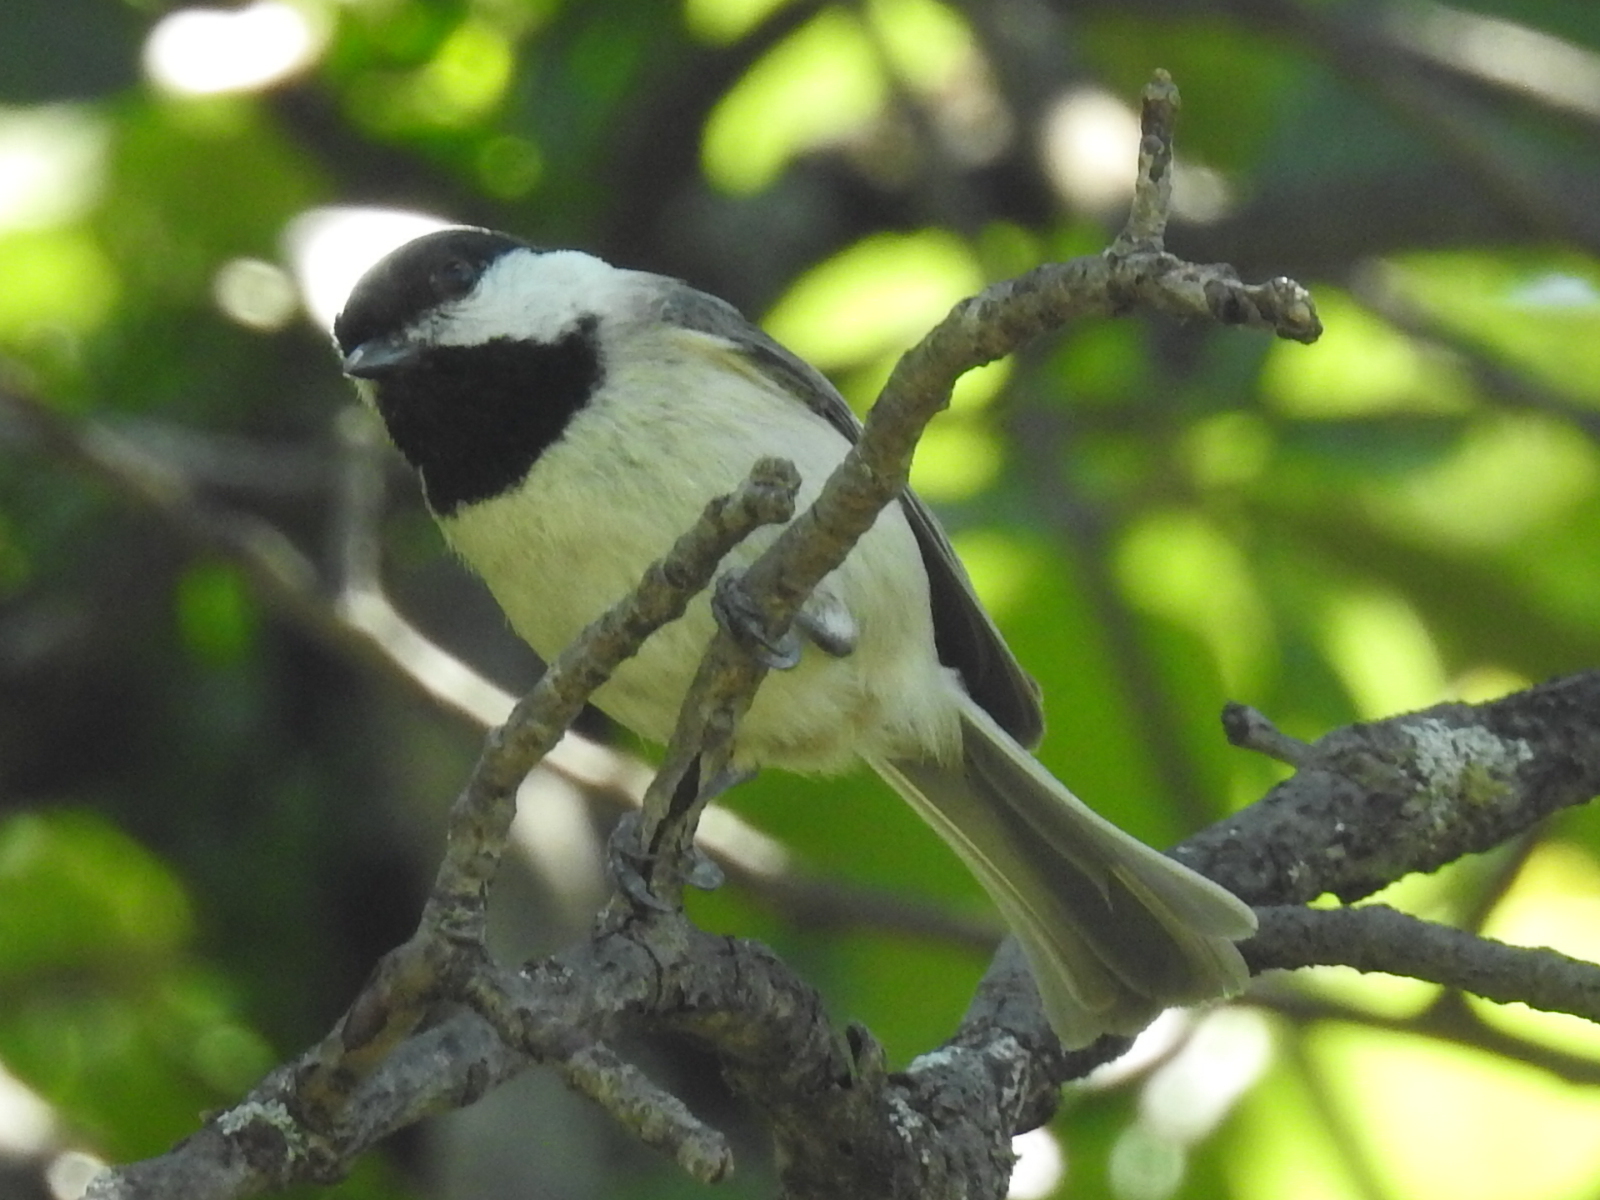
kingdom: Animalia
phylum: Chordata
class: Aves
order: Passeriformes
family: Paridae
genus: Poecile
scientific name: Poecile carolinensis
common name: Carolina chickadee
